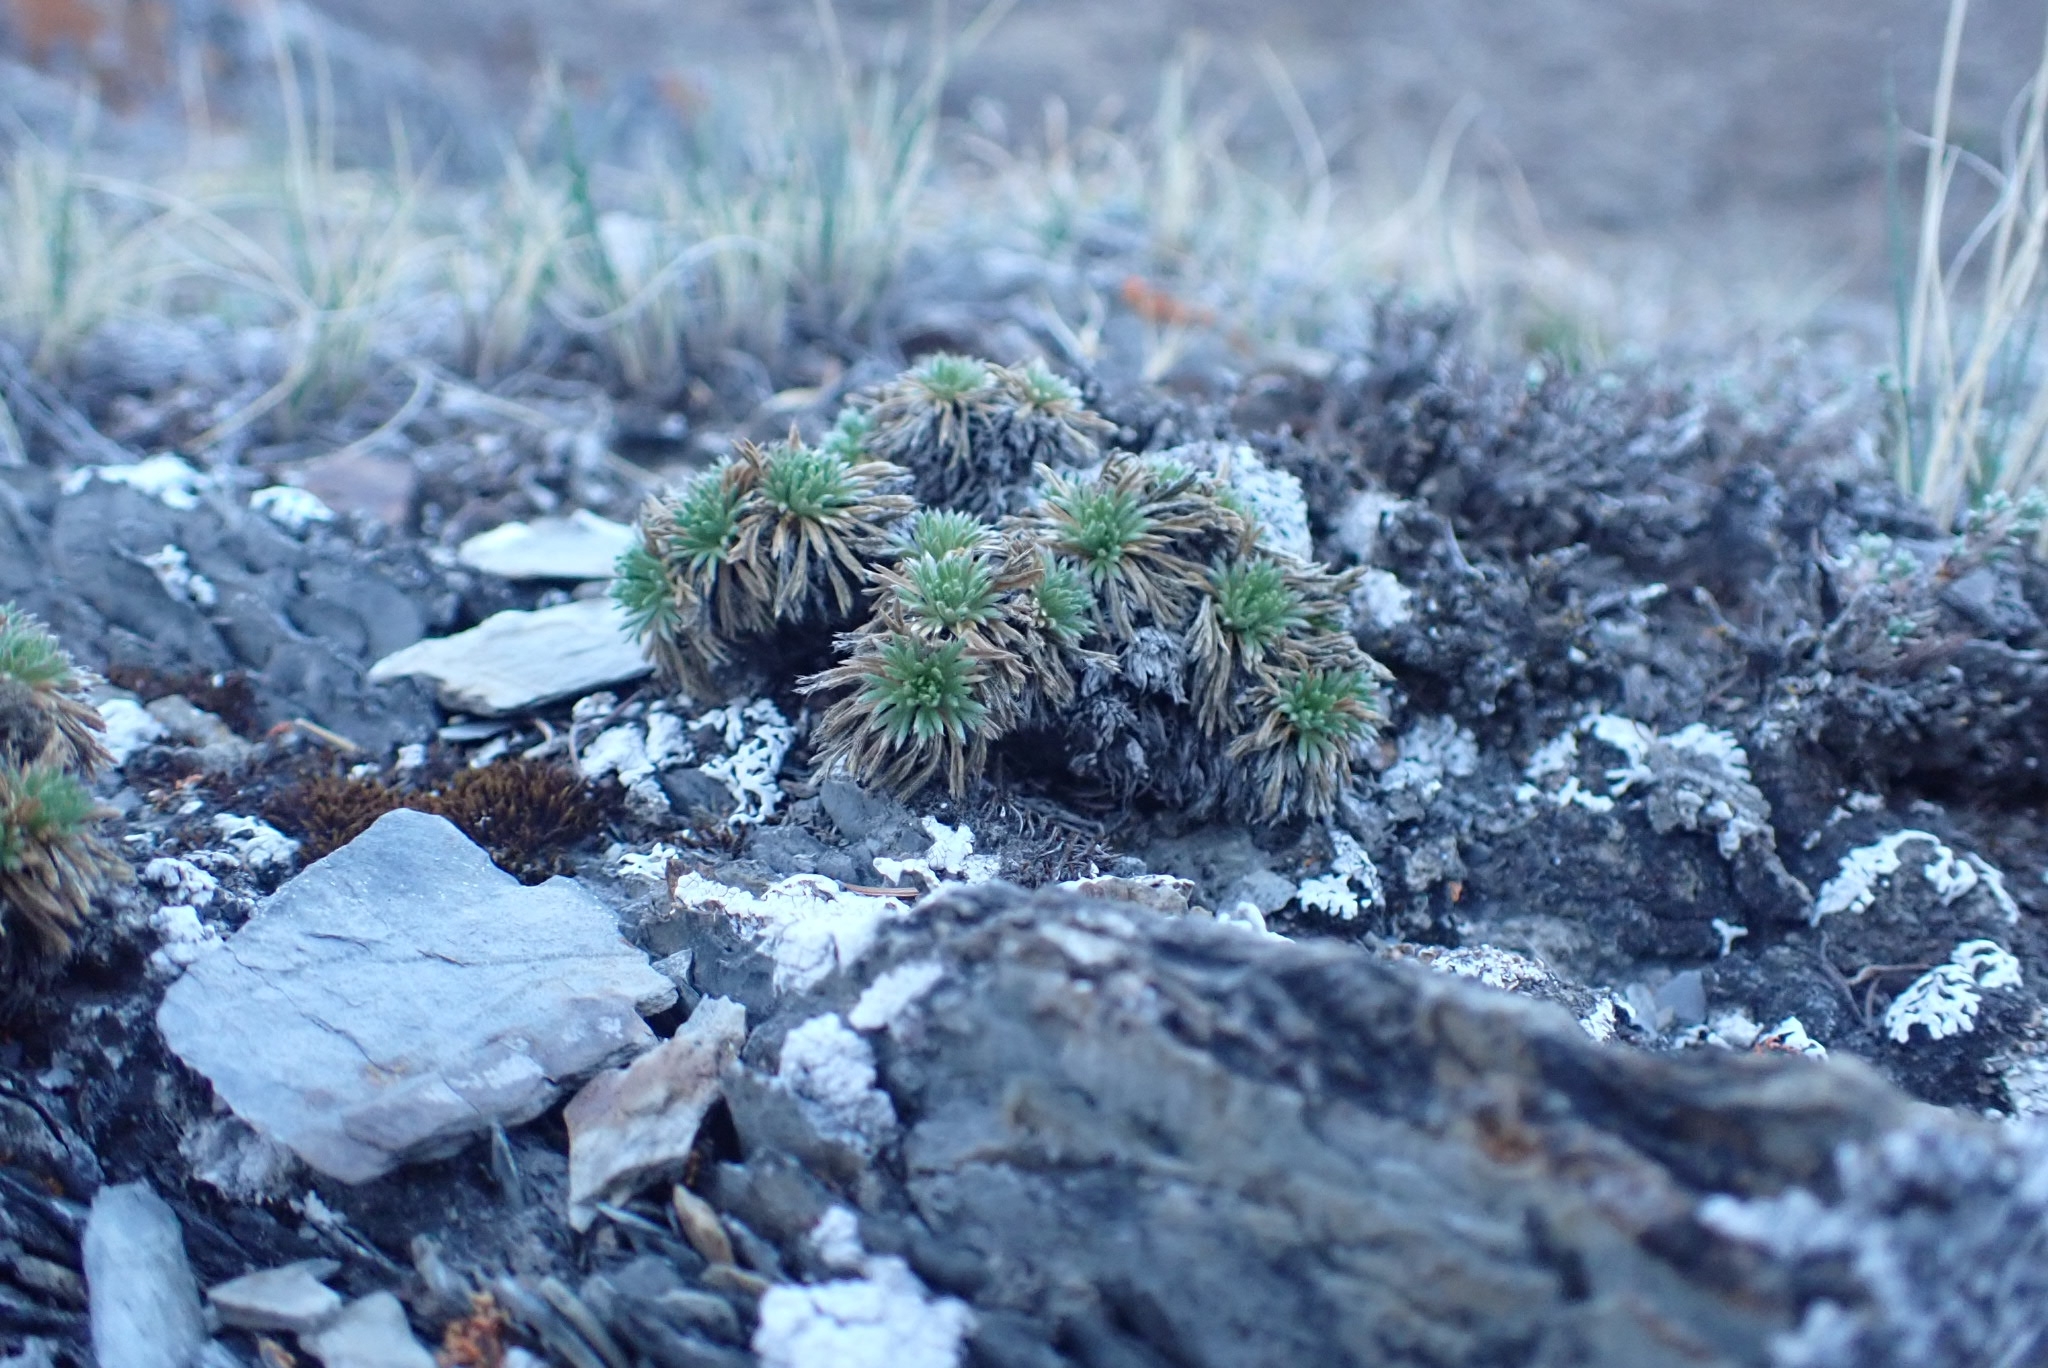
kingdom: Plantae
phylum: Tracheophyta
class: Magnoliopsida
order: Rosales
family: Rosaceae
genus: Chamaerhodos
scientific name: Chamaerhodos altaica
